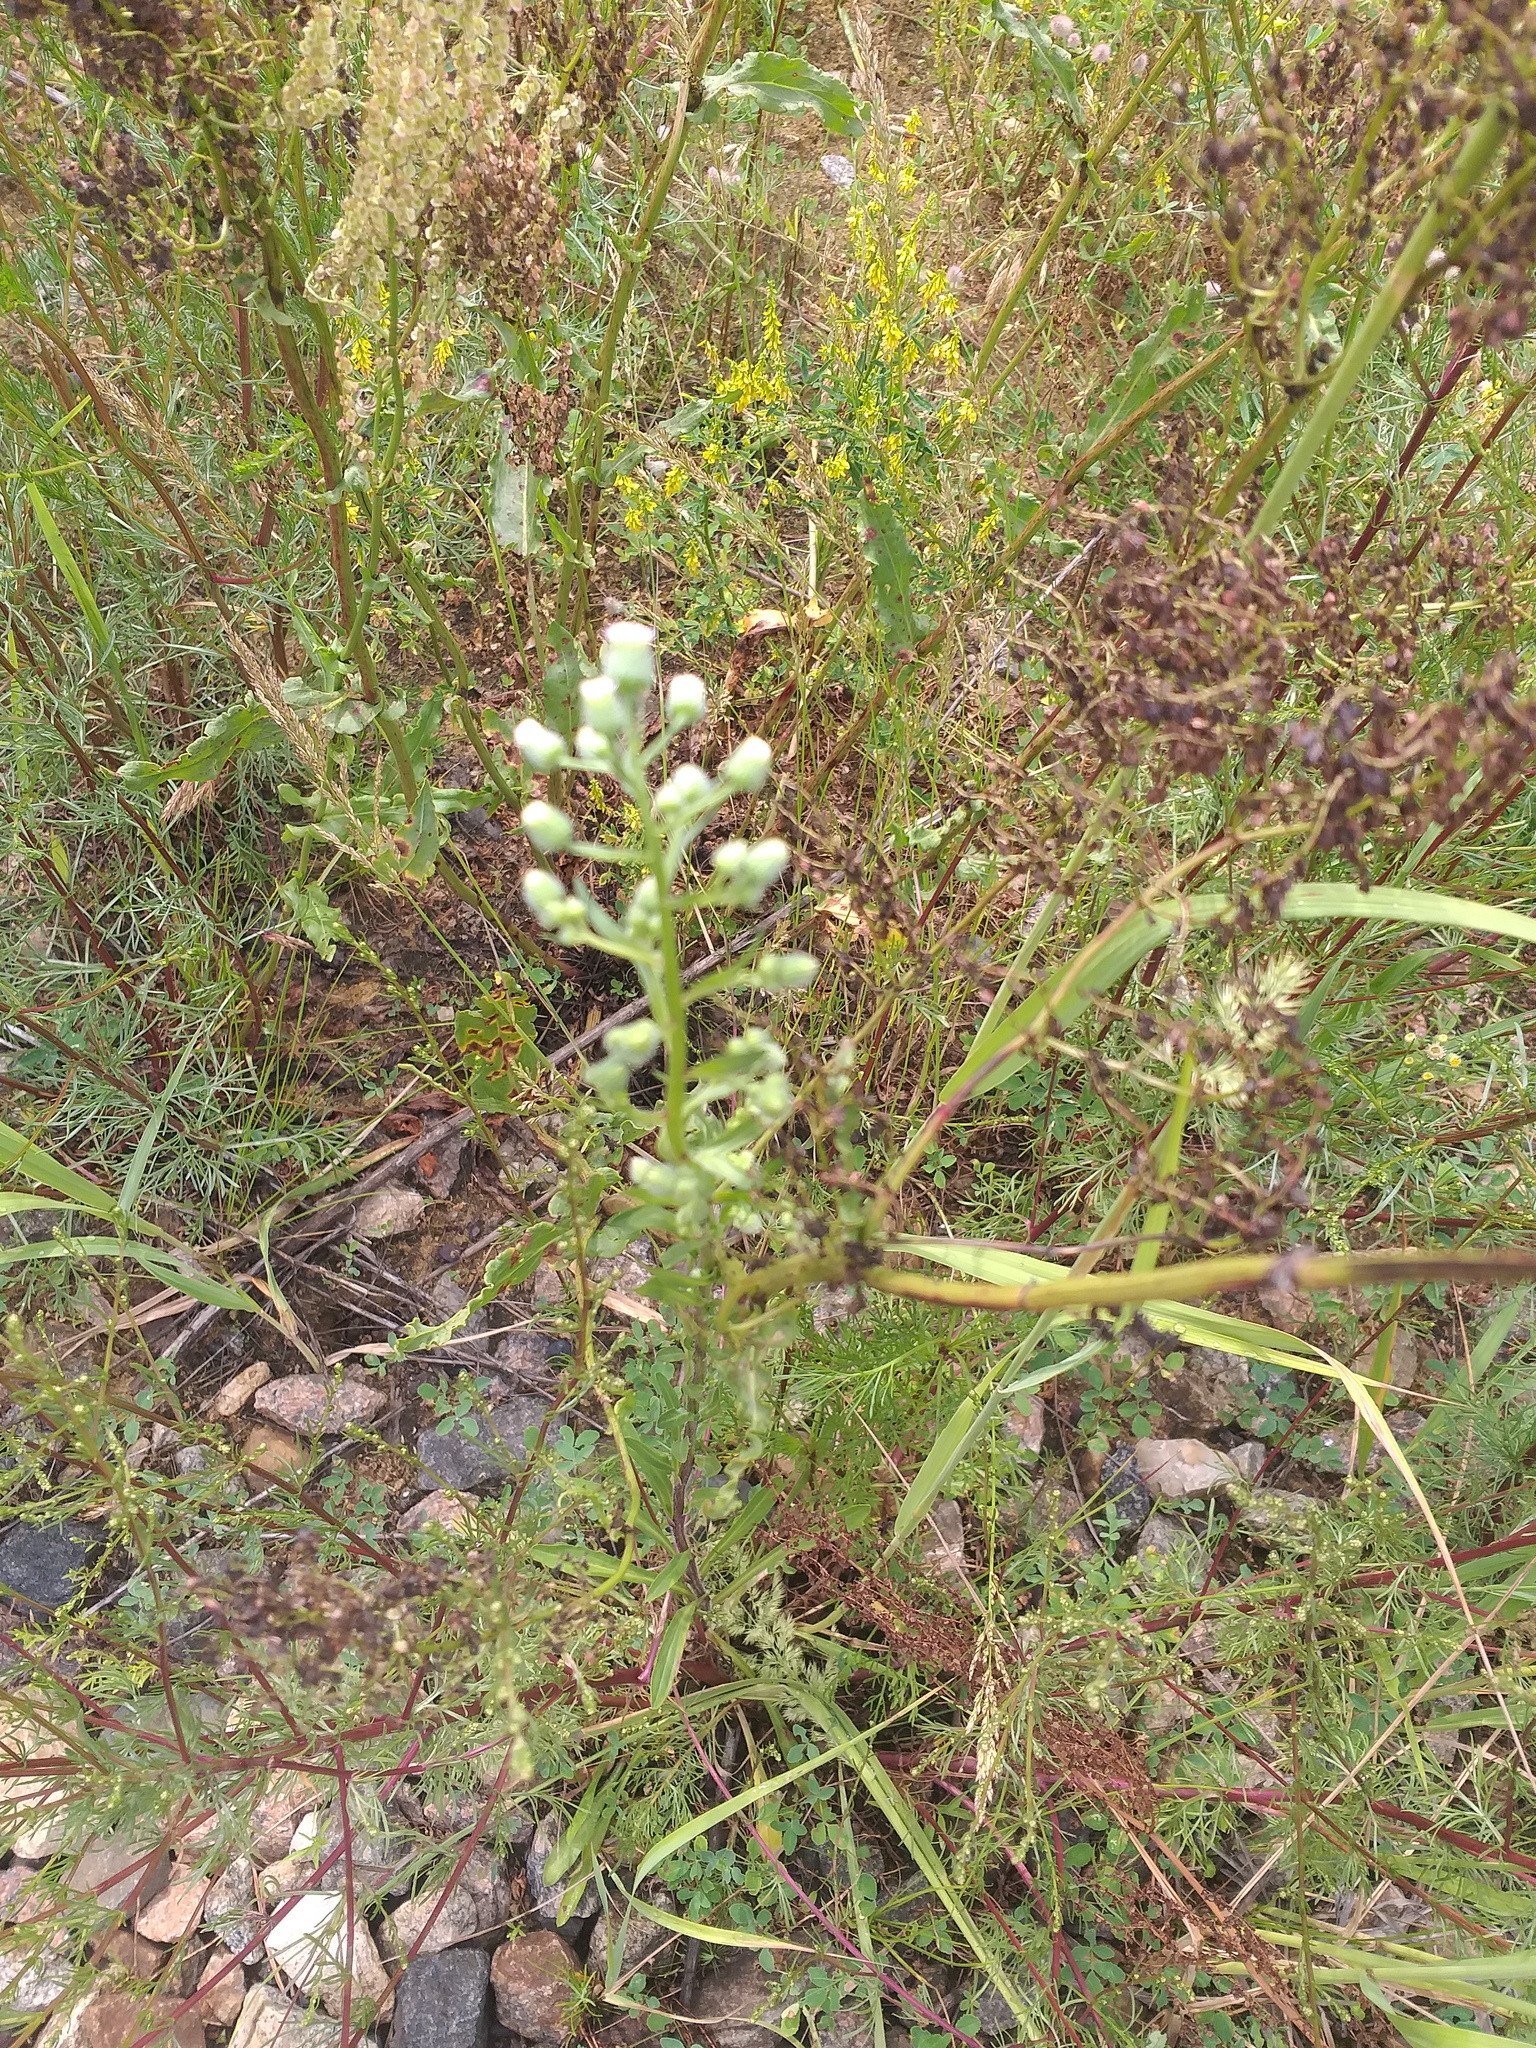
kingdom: Plantae
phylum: Tracheophyta
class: Magnoliopsida
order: Asterales
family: Asteraceae
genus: Erigeron
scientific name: Erigeron droebachiensis
